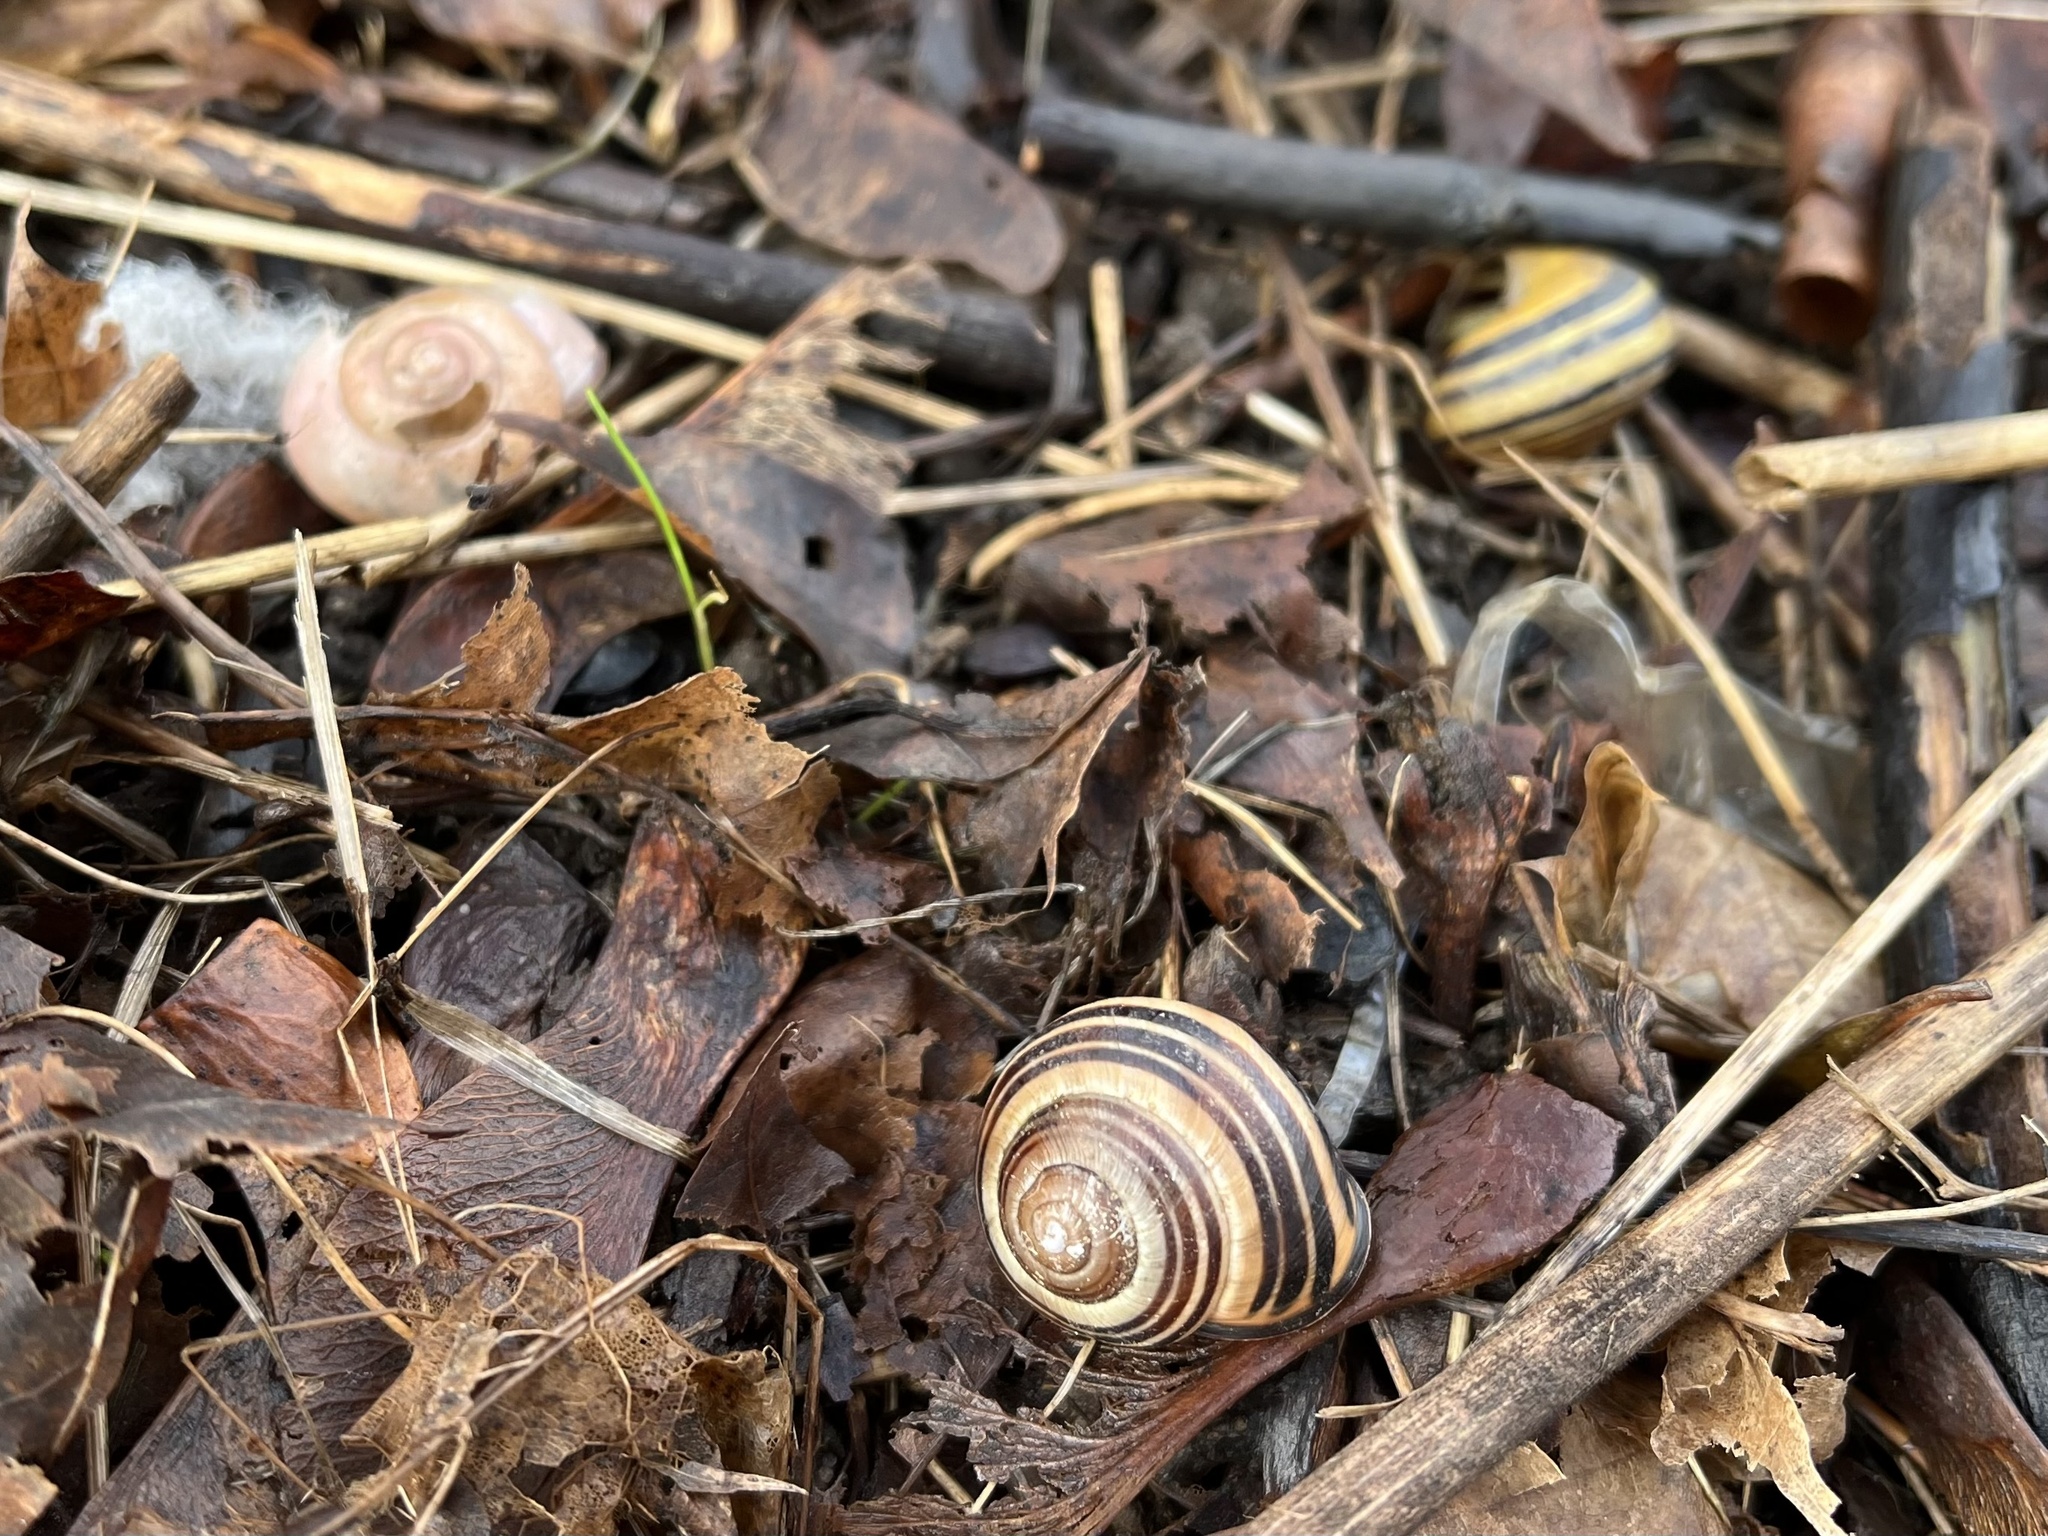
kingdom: Animalia
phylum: Mollusca
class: Gastropoda
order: Stylommatophora
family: Helicidae
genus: Cepaea
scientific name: Cepaea nemoralis
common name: Grovesnail
